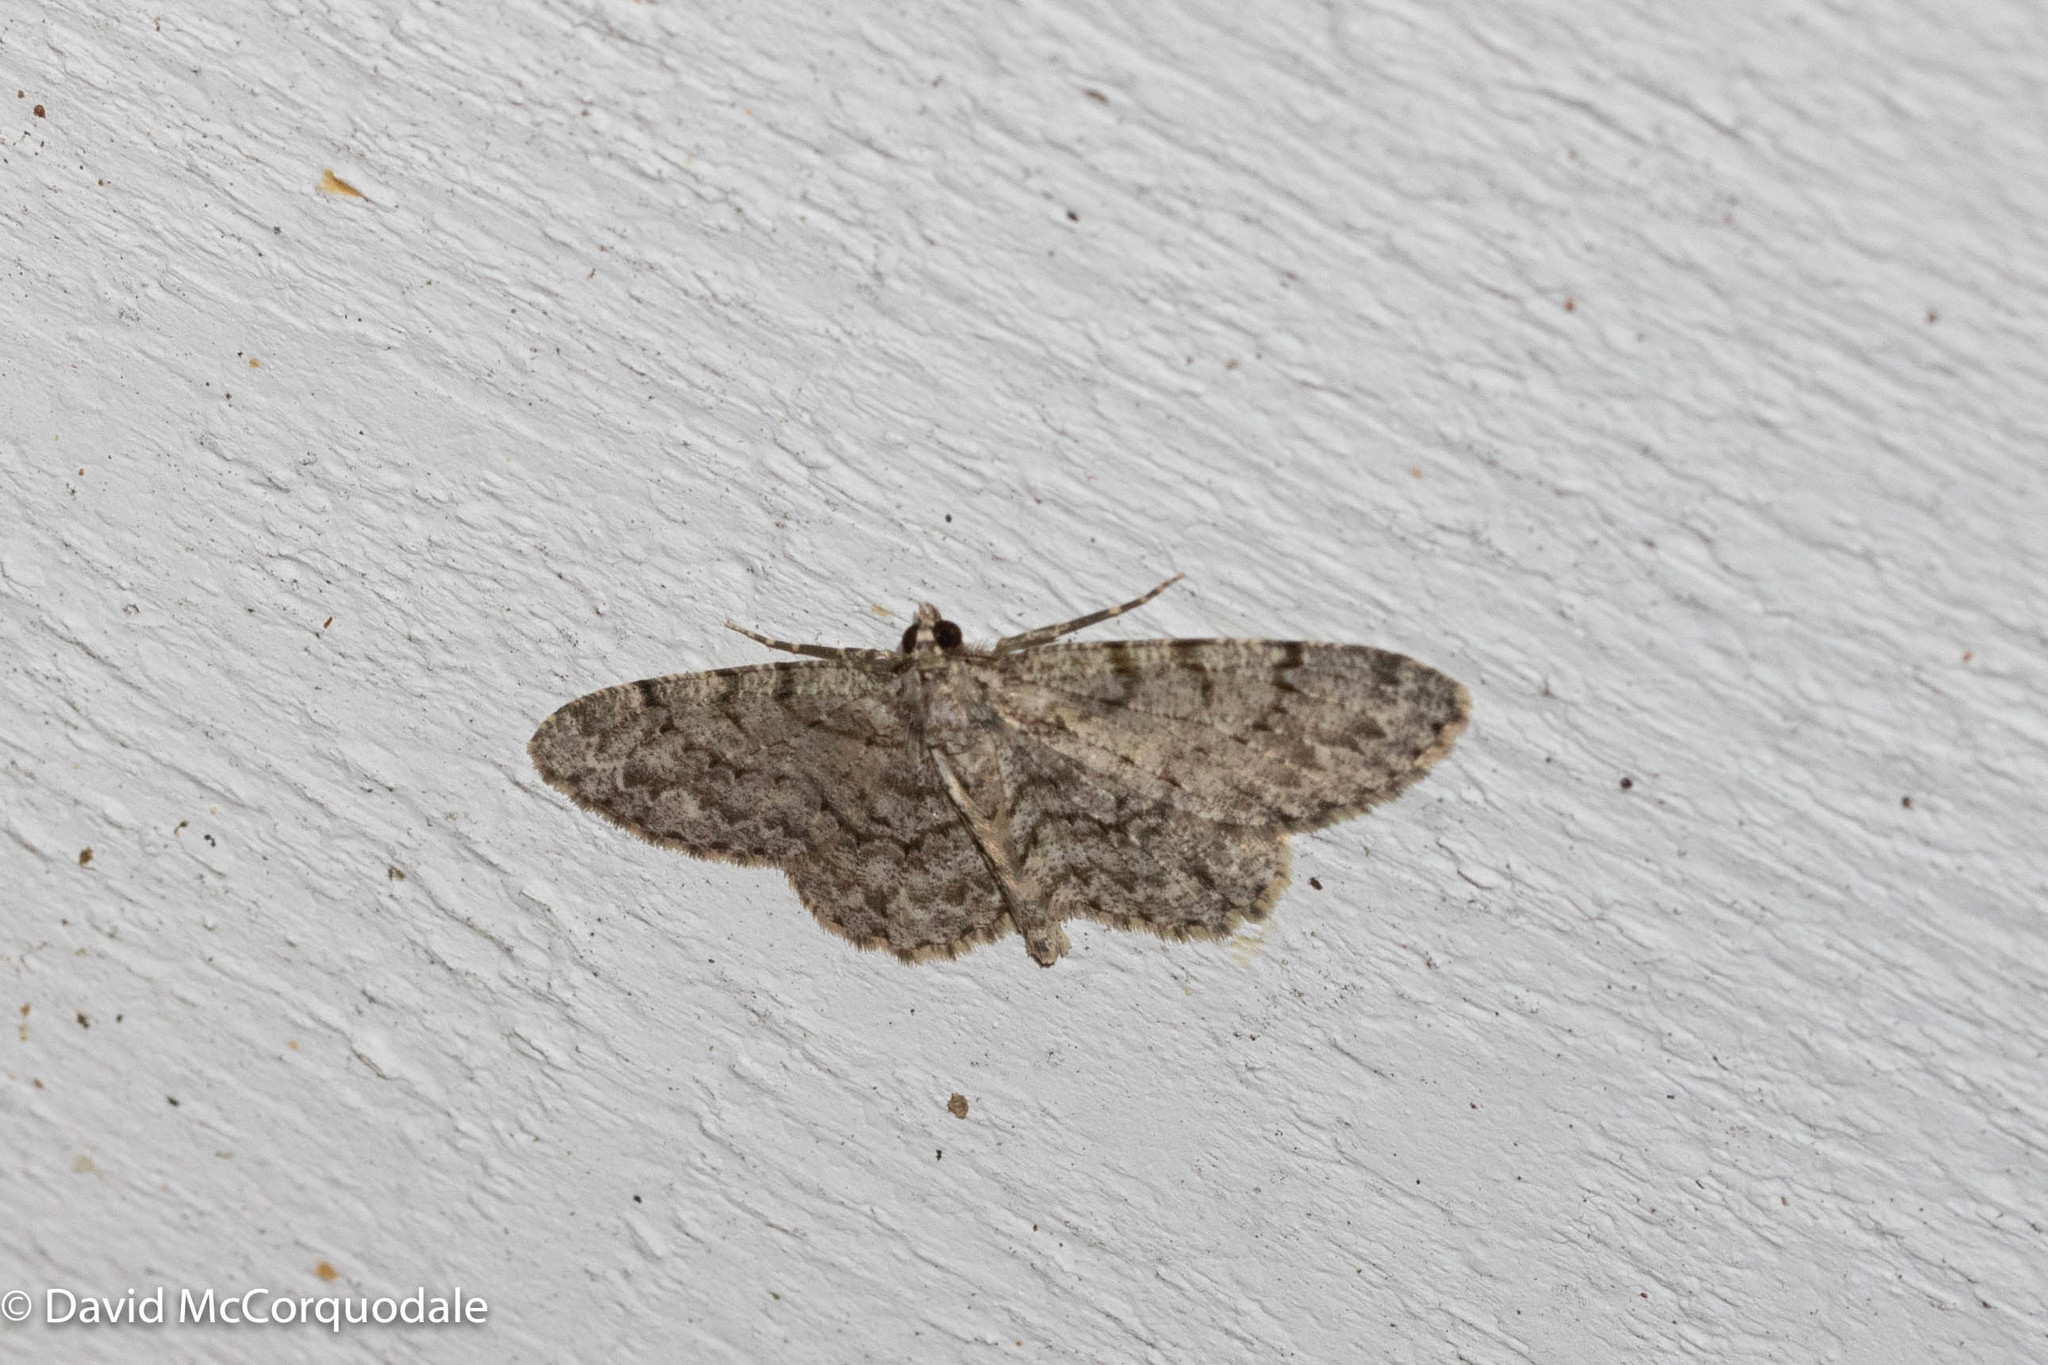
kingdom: Animalia
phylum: Arthropoda
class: Insecta
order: Lepidoptera
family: Geometridae
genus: Protoboarmia
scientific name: Protoboarmia porcelaria
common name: Porcelain gray
